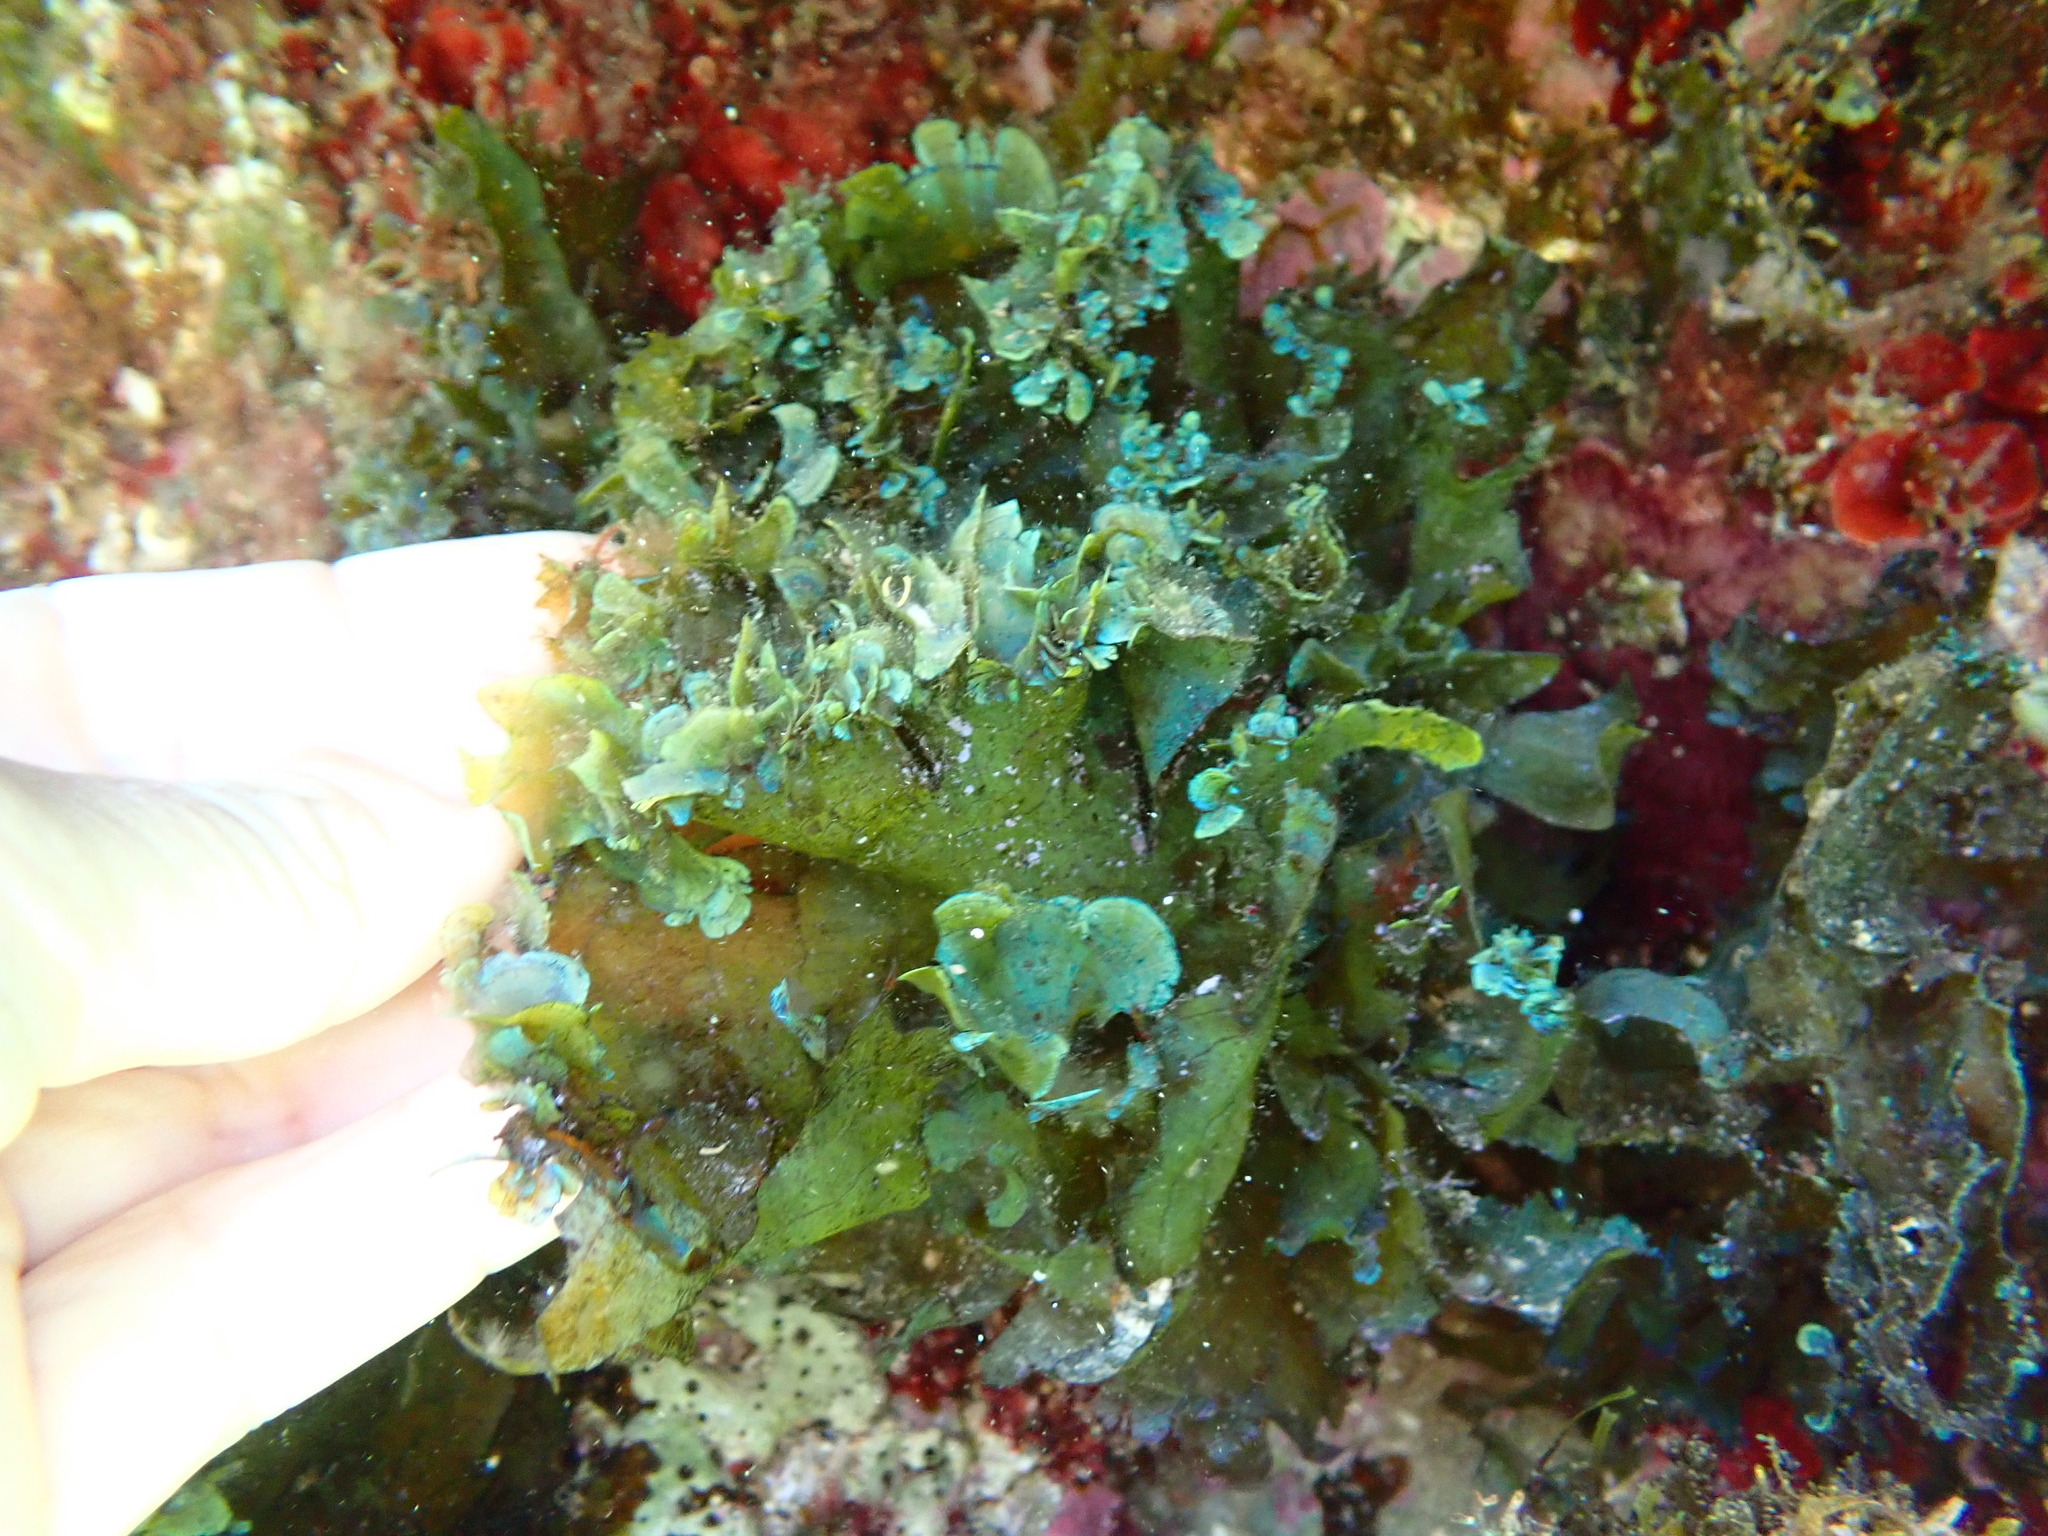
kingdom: Chromista
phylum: Ochrophyta
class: Phaeophyceae
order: Dictyotales
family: Dictyotaceae
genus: Stypopodium
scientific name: Stypopodium schimperi
